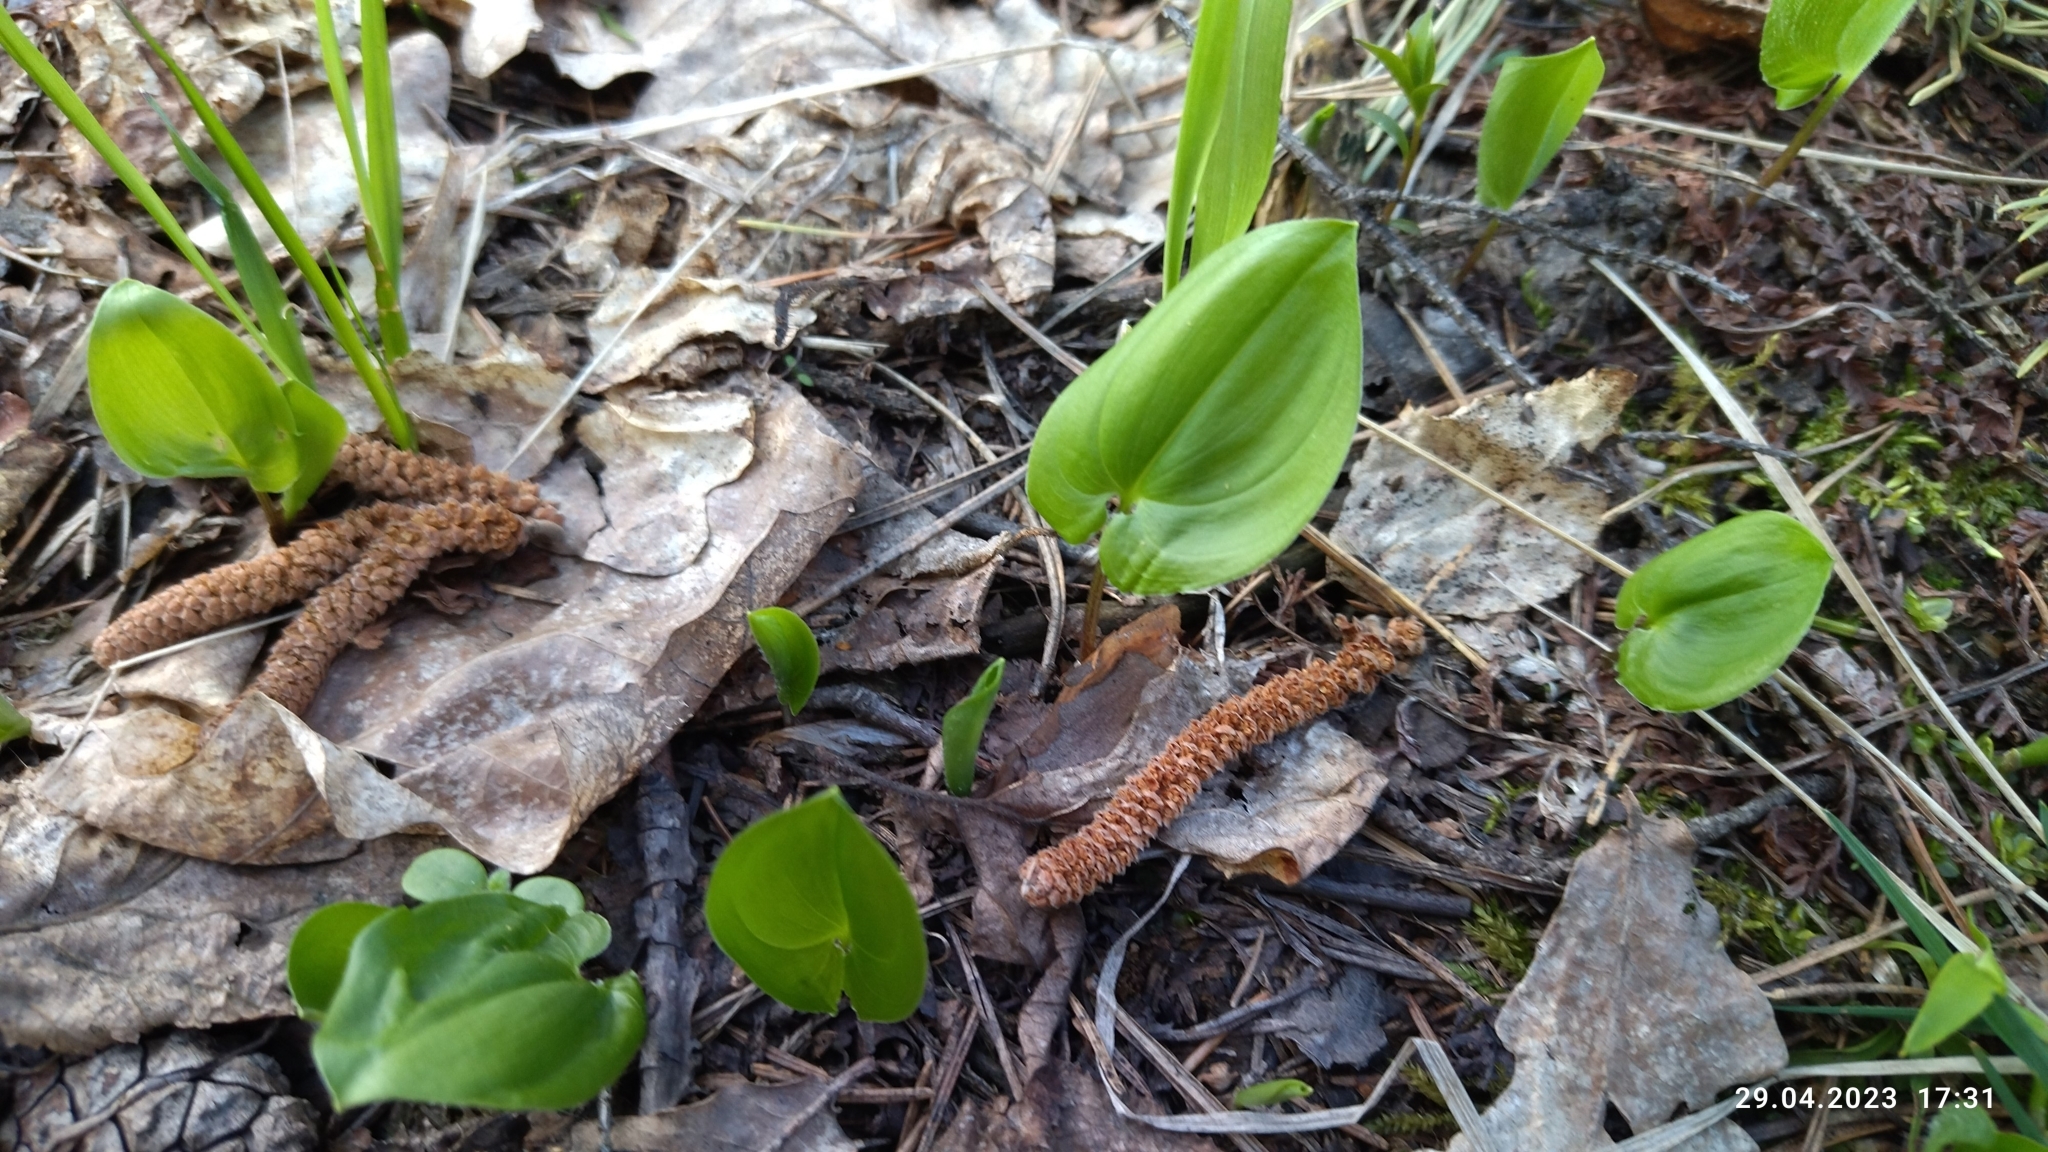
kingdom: Plantae
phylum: Tracheophyta
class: Liliopsida
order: Asparagales
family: Asparagaceae
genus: Maianthemum
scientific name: Maianthemum bifolium
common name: May lily
